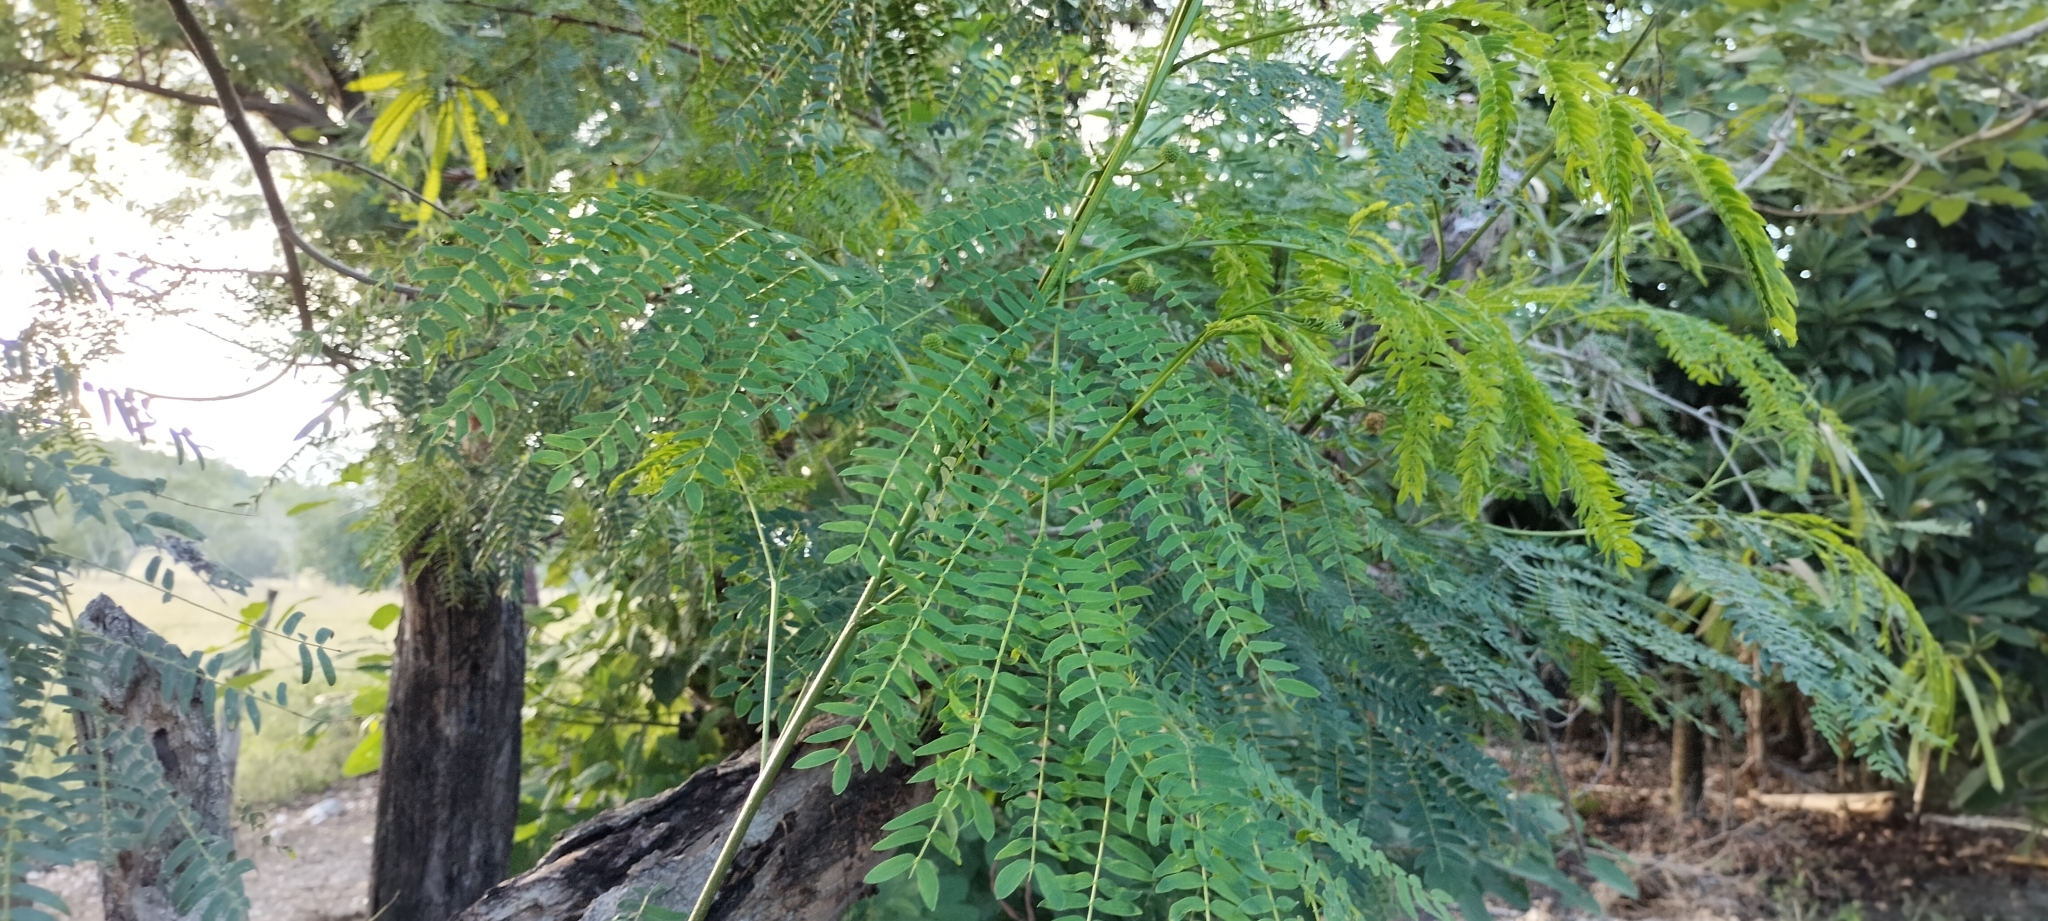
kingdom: Plantae
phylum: Tracheophyta
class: Magnoliopsida
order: Fabales
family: Fabaceae
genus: Leucaena
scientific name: Leucaena leucocephala
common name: White leadtree
